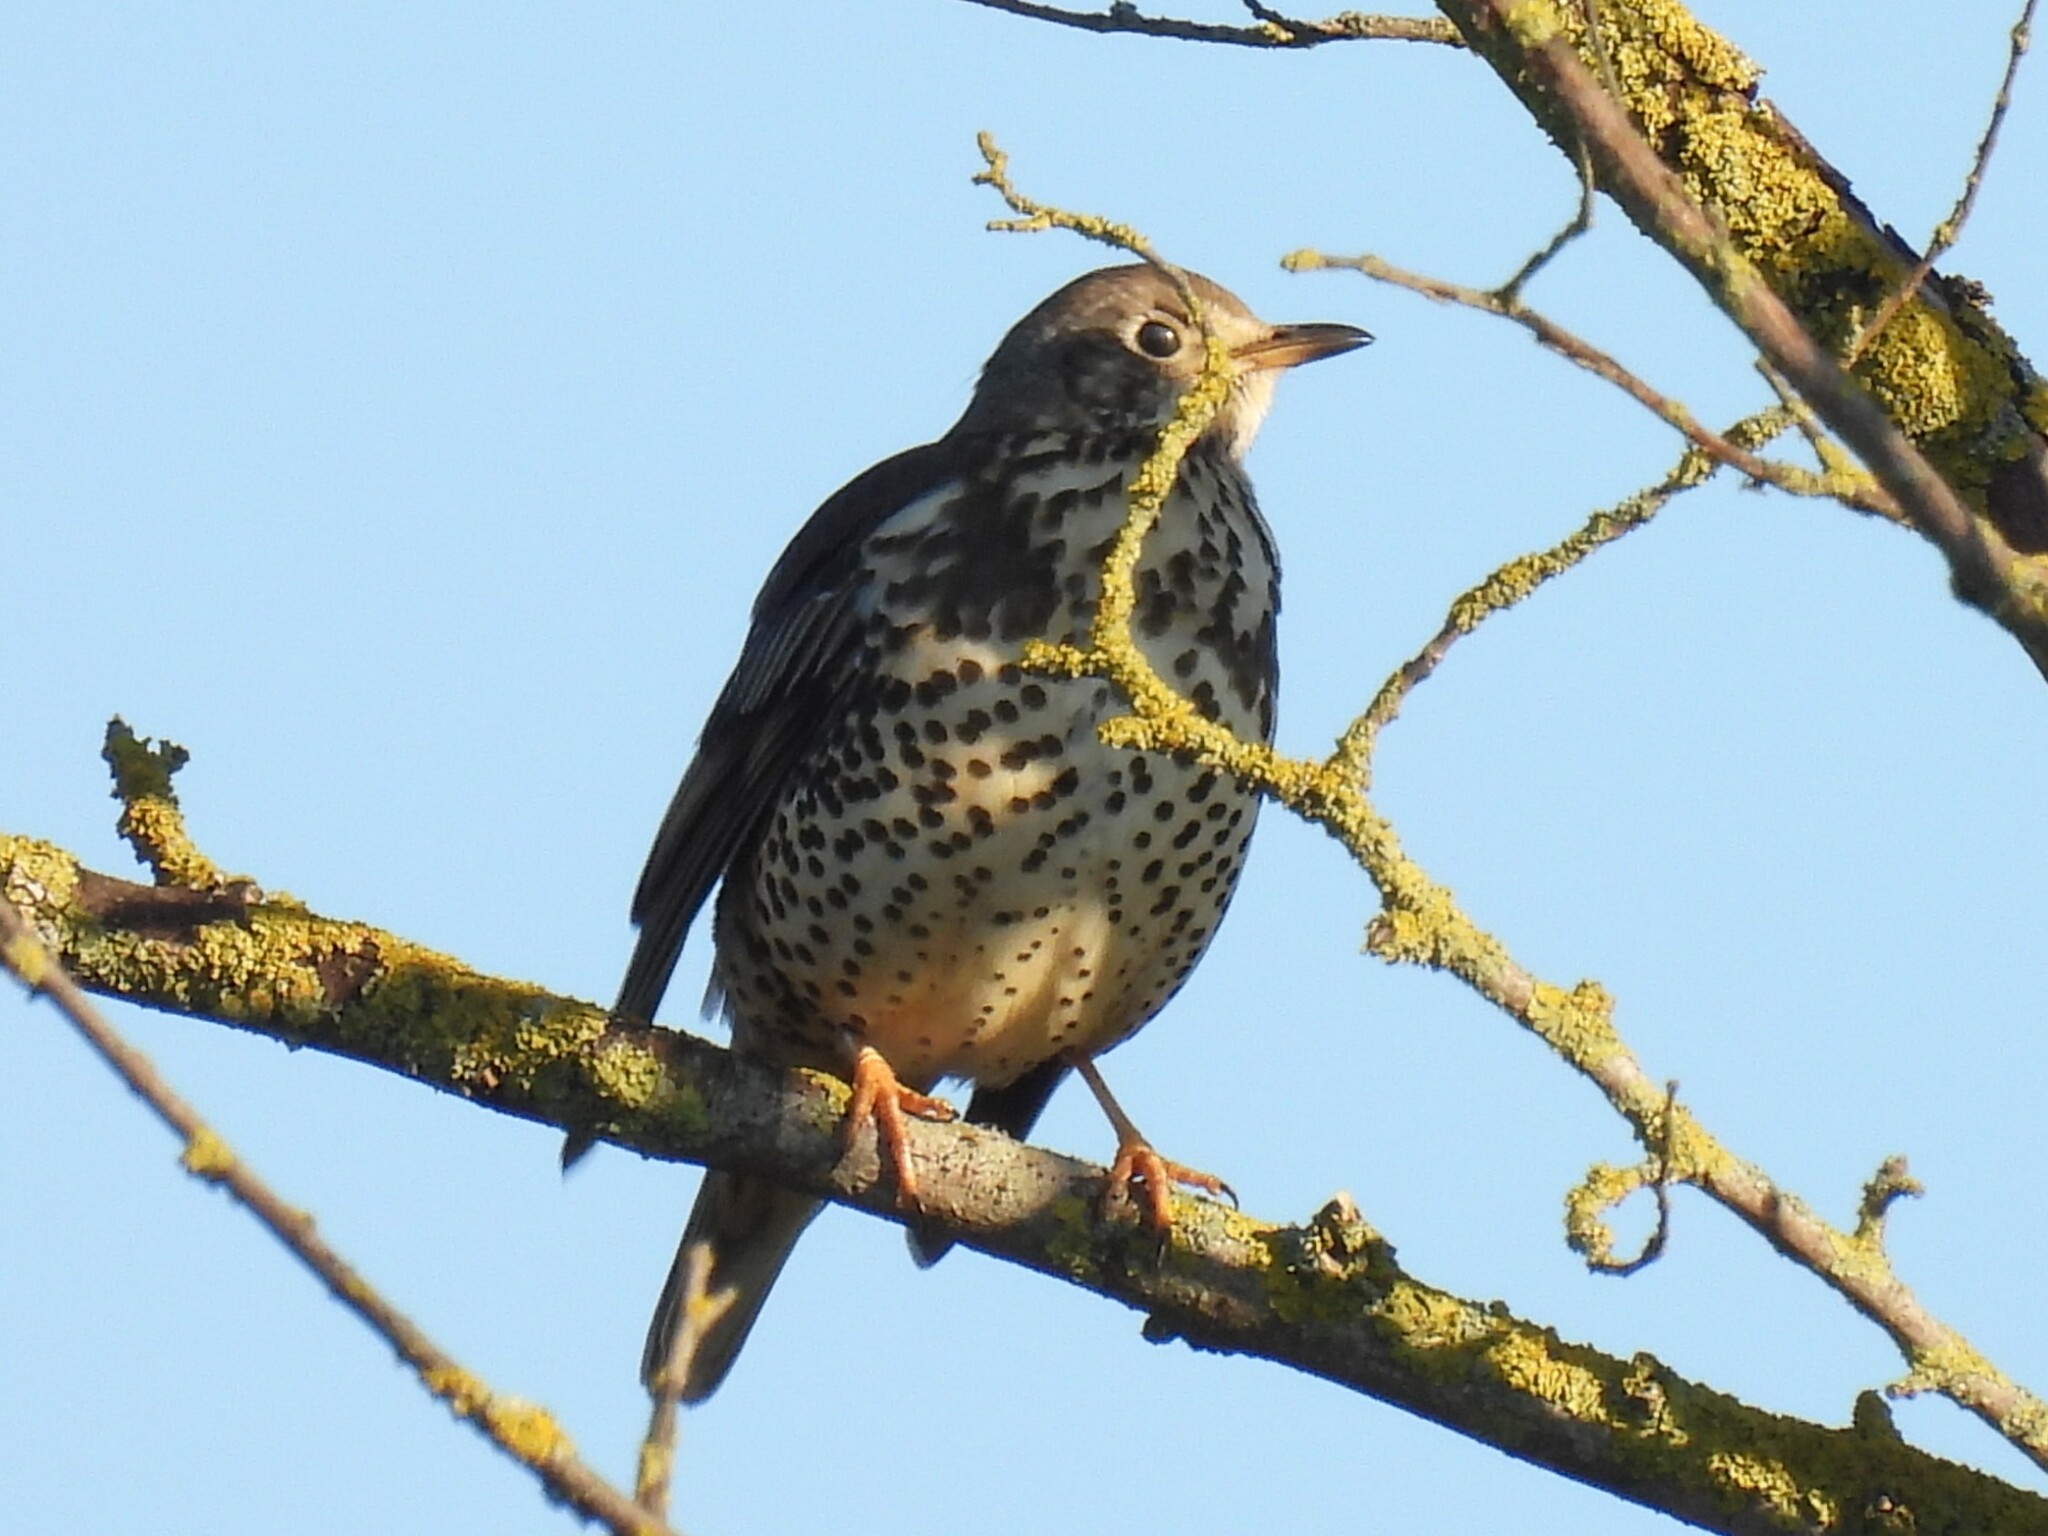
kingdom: Animalia
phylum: Chordata
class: Aves
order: Passeriformes
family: Turdidae
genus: Turdus
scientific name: Turdus viscivorus
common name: Mistle thrush
